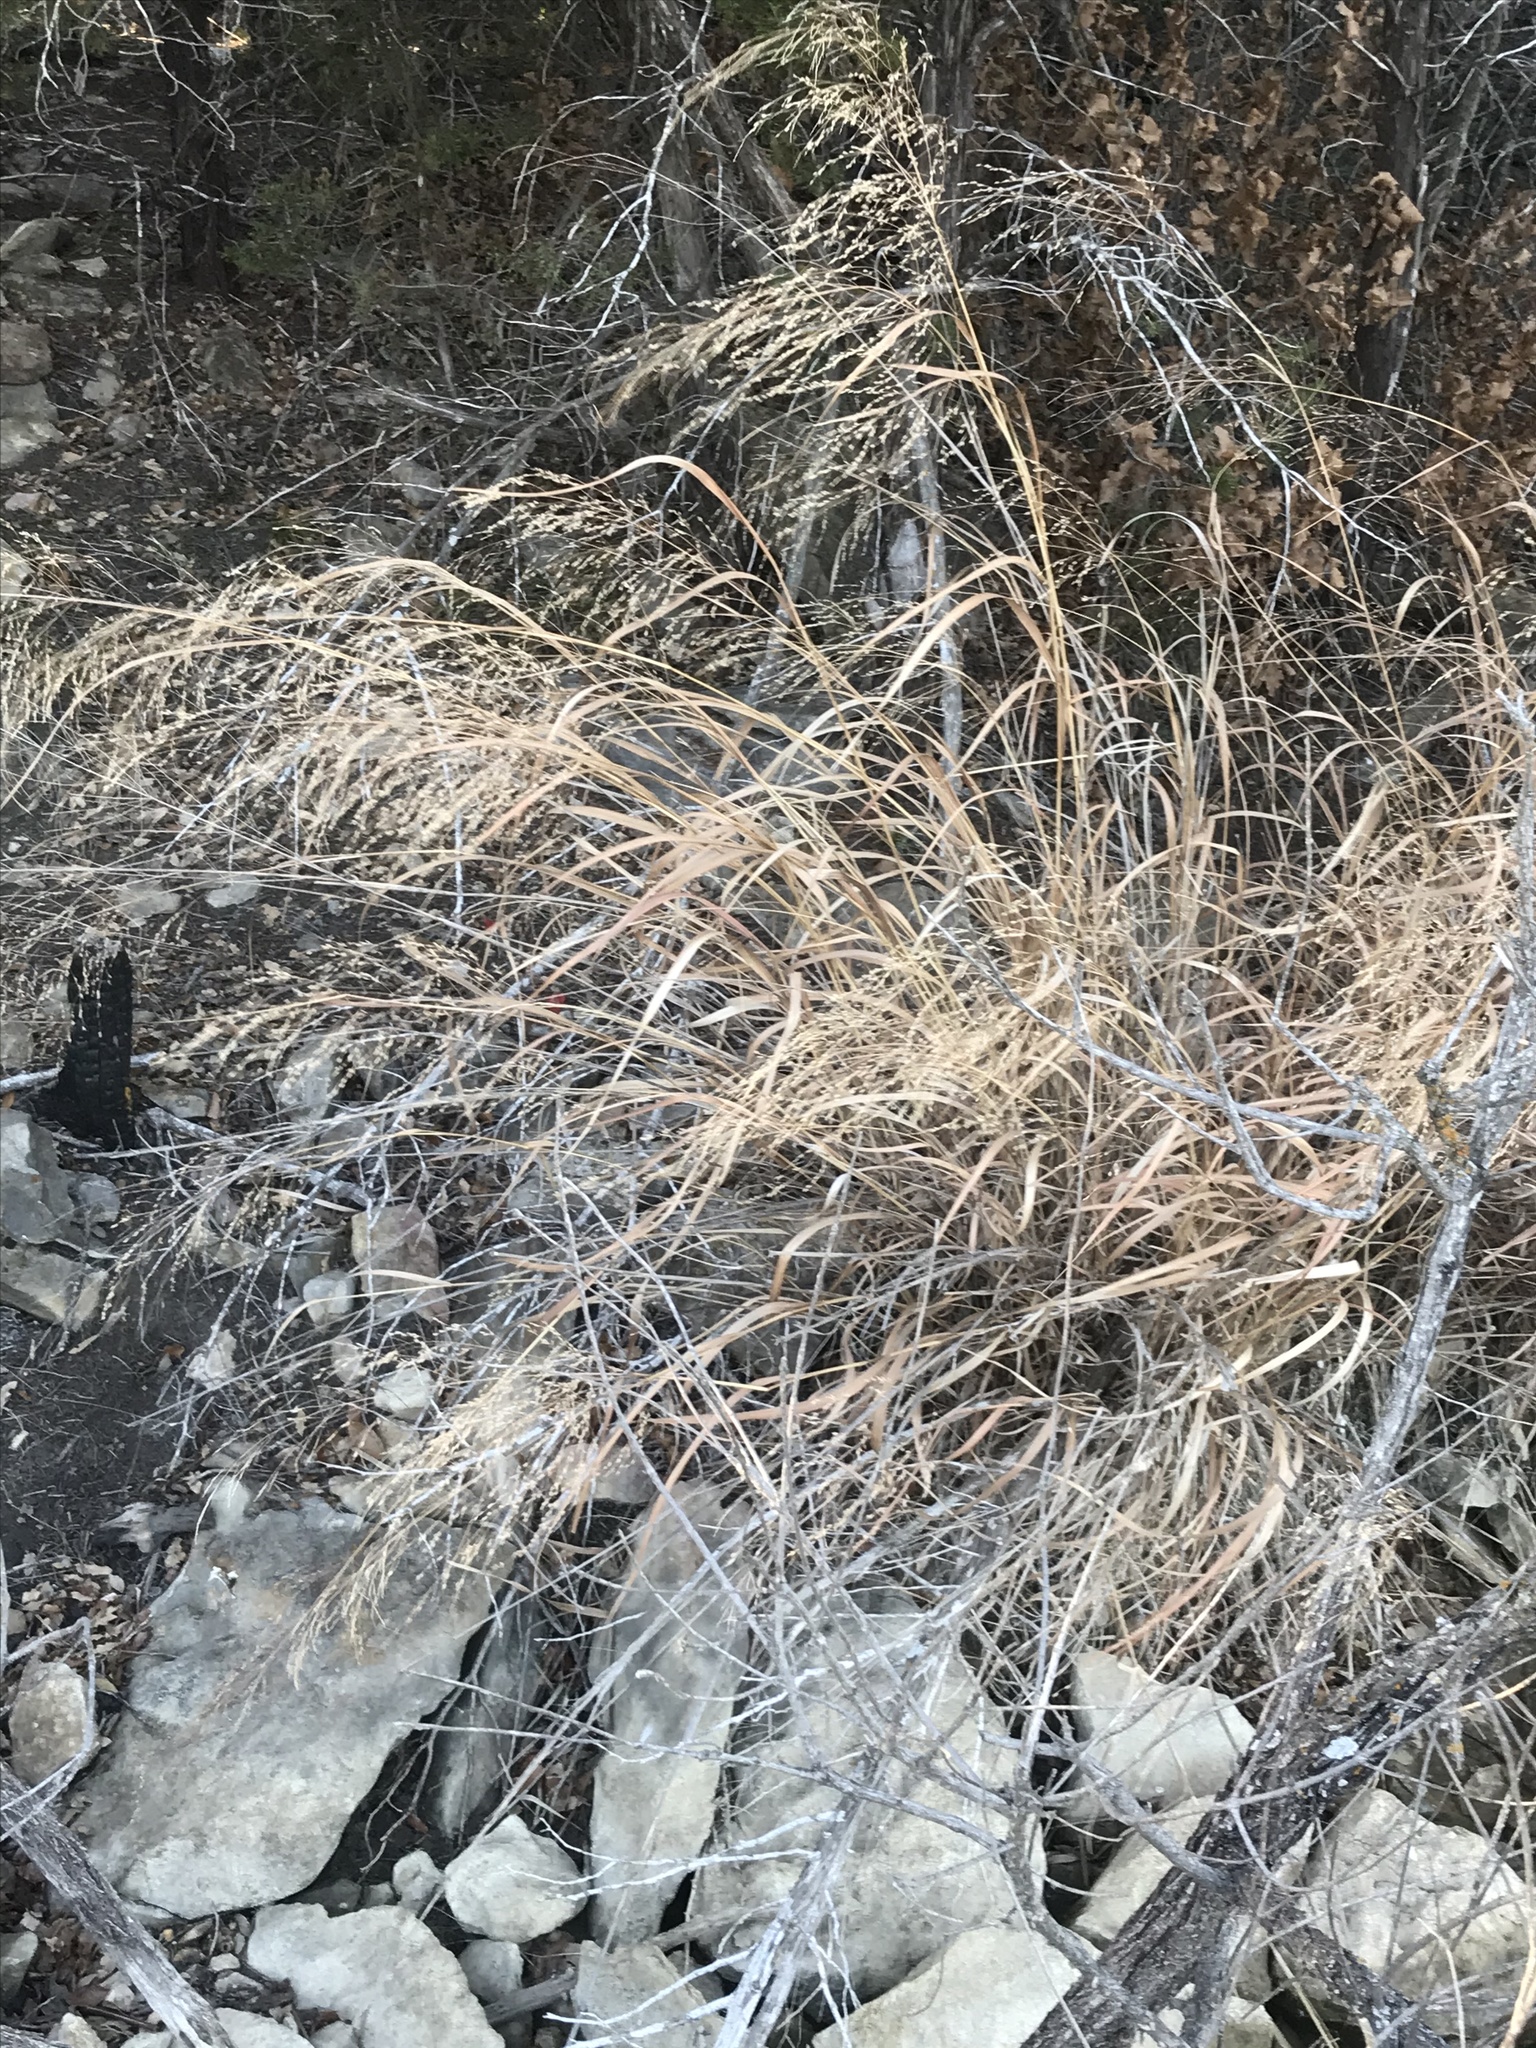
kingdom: Plantae
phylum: Tracheophyta
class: Liliopsida
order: Poales
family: Poaceae
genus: Panicum
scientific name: Panicum virgatum
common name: Switchgrass
